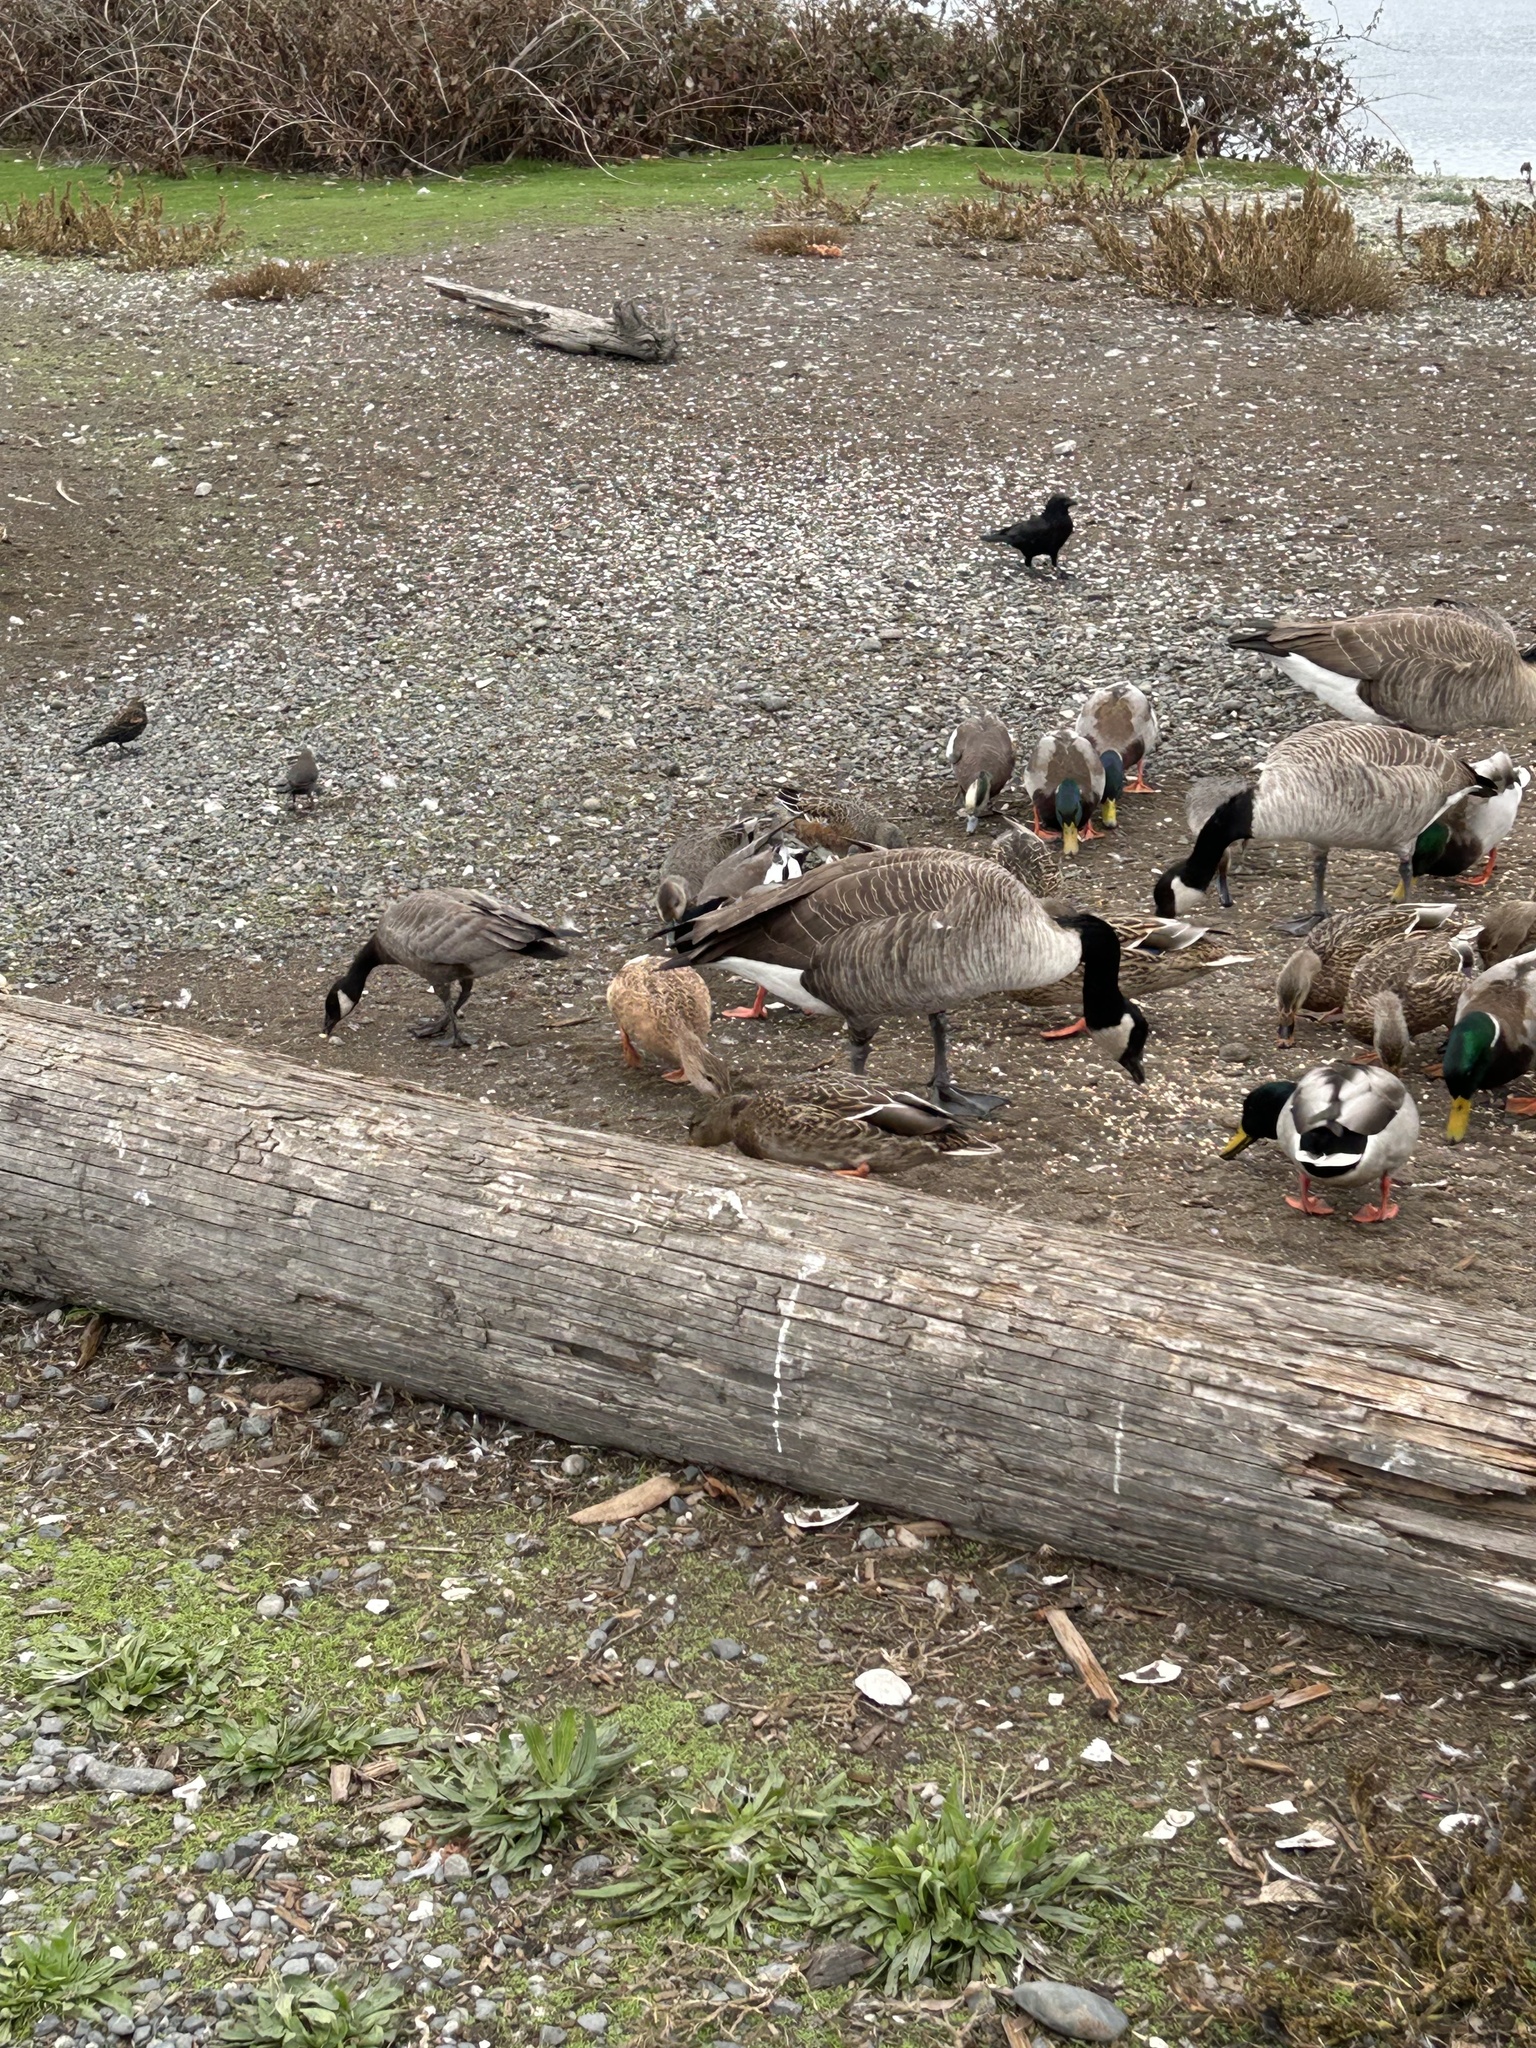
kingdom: Animalia
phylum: Chordata
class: Aves
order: Anseriformes
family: Anatidae
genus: Branta
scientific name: Branta hutchinsii
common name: Cackling goose
